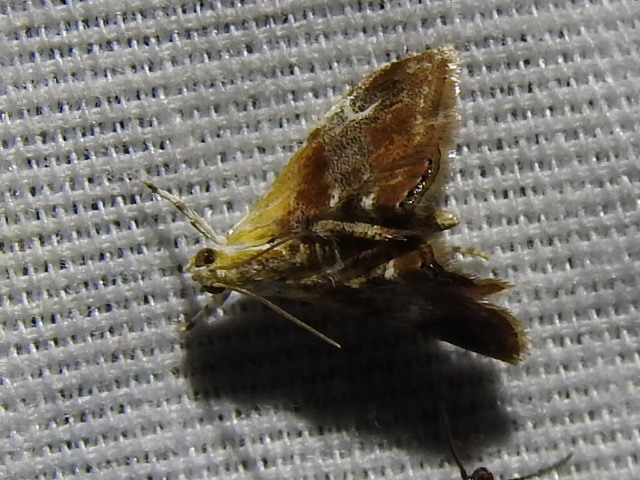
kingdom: Animalia
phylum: Arthropoda
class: Insecta
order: Lepidoptera
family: Crambidae
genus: Dicymolomia
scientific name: Dicymolomia julianalis
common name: Julia's dicymolomia moth
